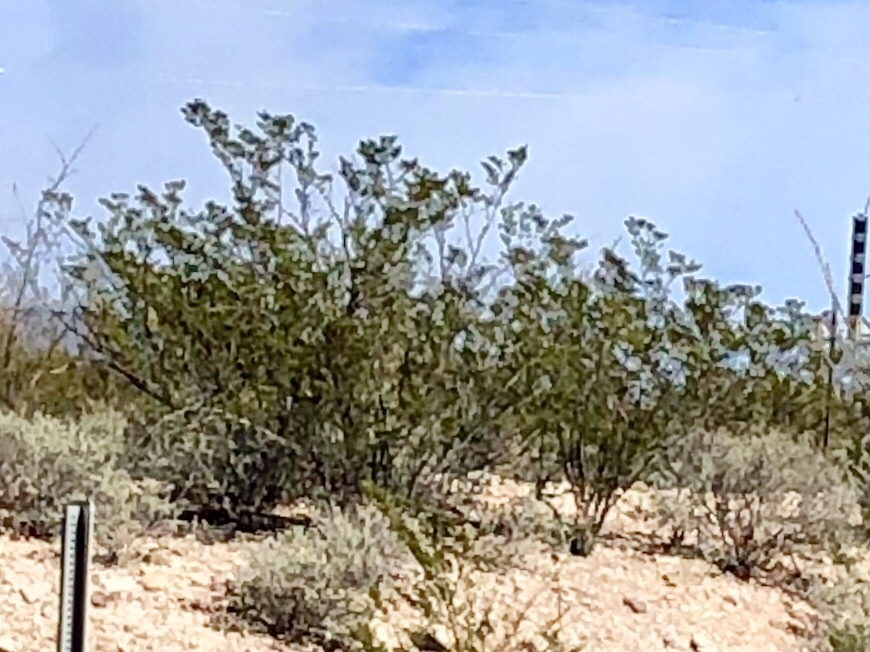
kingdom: Plantae
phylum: Tracheophyta
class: Magnoliopsida
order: Zygophyllales
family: Zygophyllaceae
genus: Larrea
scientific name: Larrea tridentata
